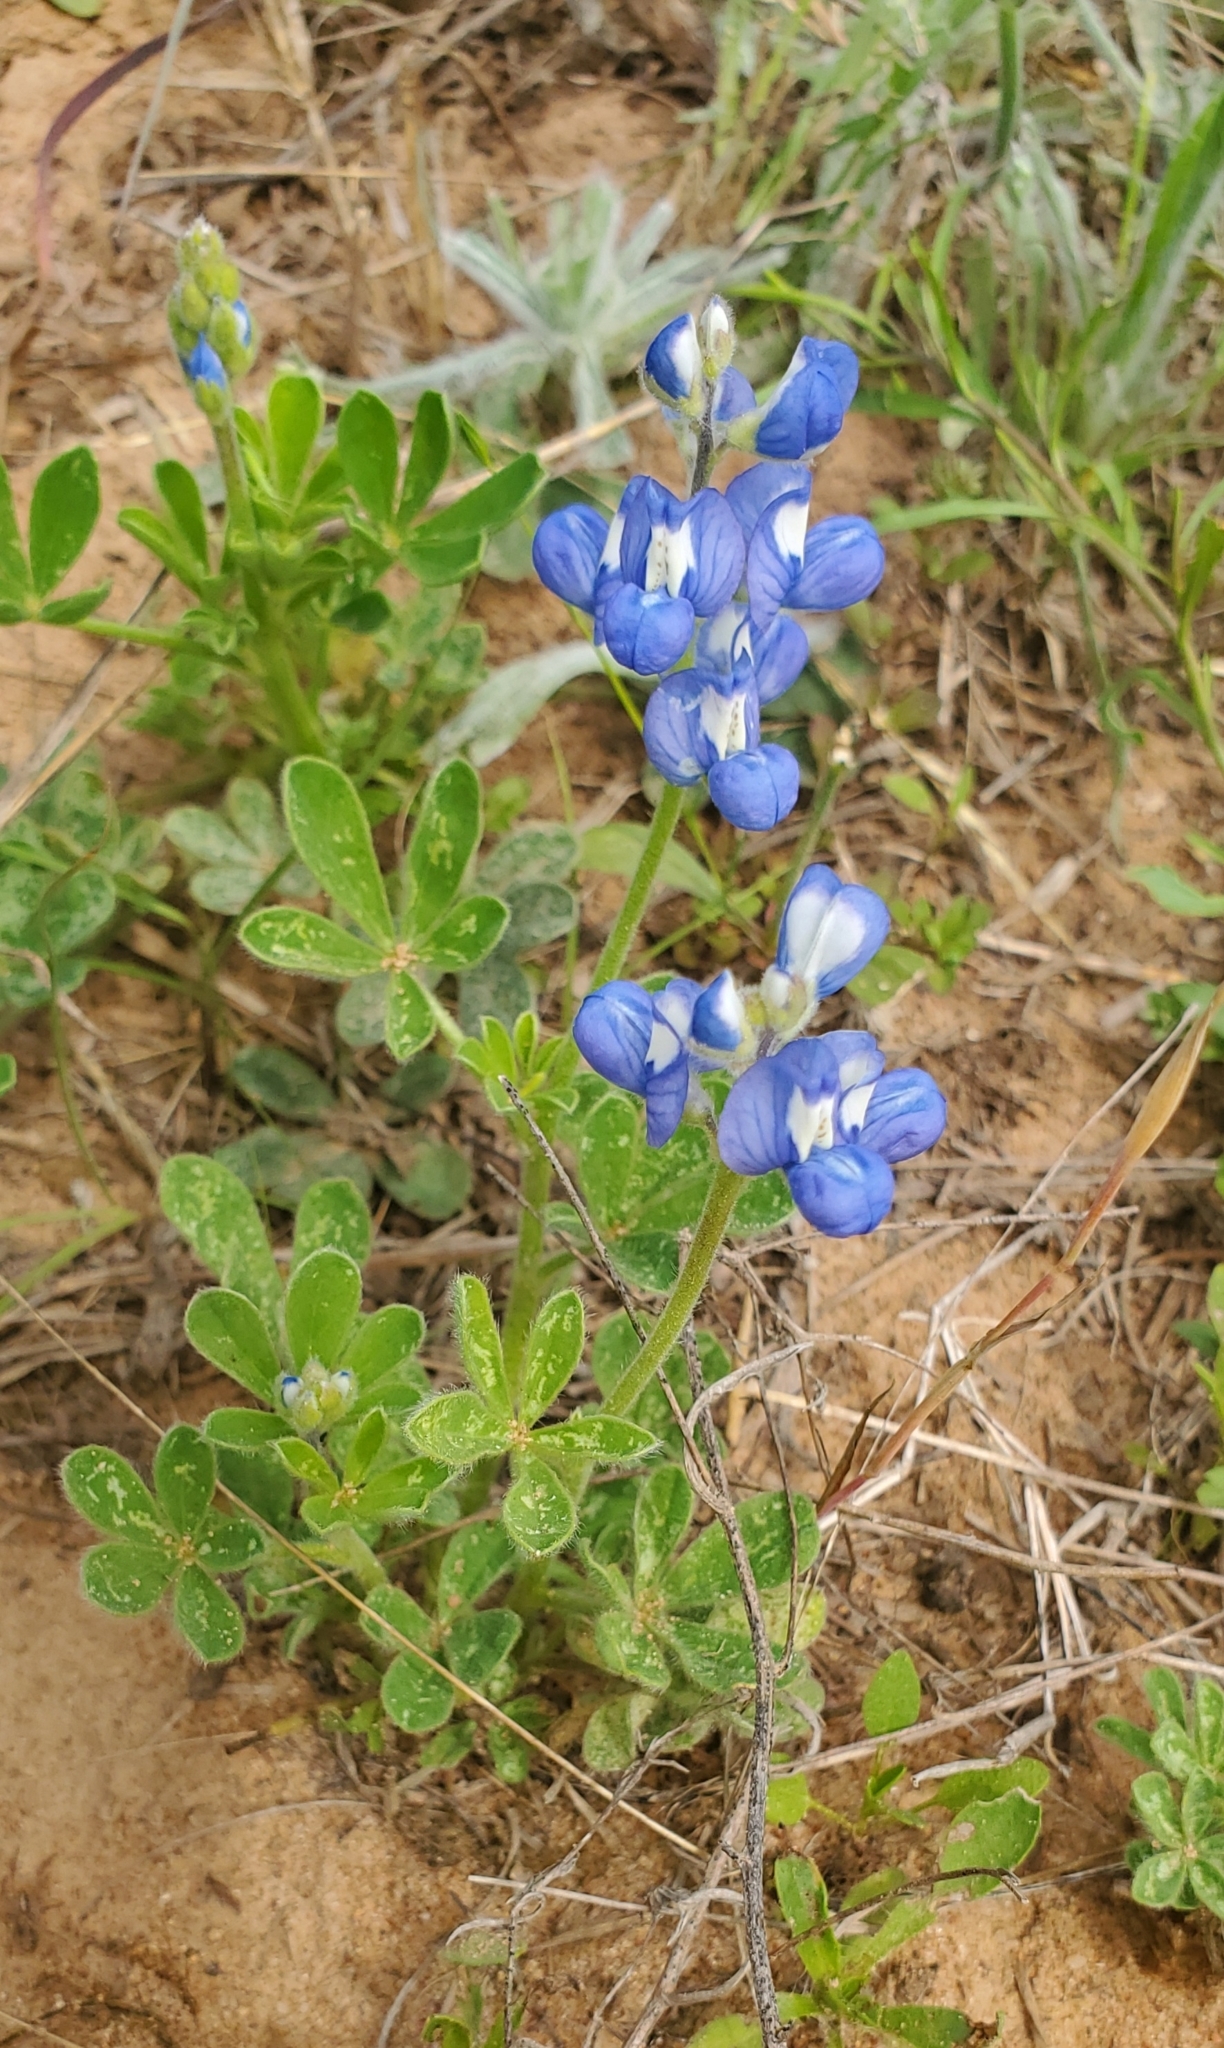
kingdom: Plantae
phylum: Tracheophyta
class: Magnoliopsida
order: Fabales
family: Fabaceae
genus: Lupinus
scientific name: Lupinus subcarnosus
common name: Texas bluebonnet
